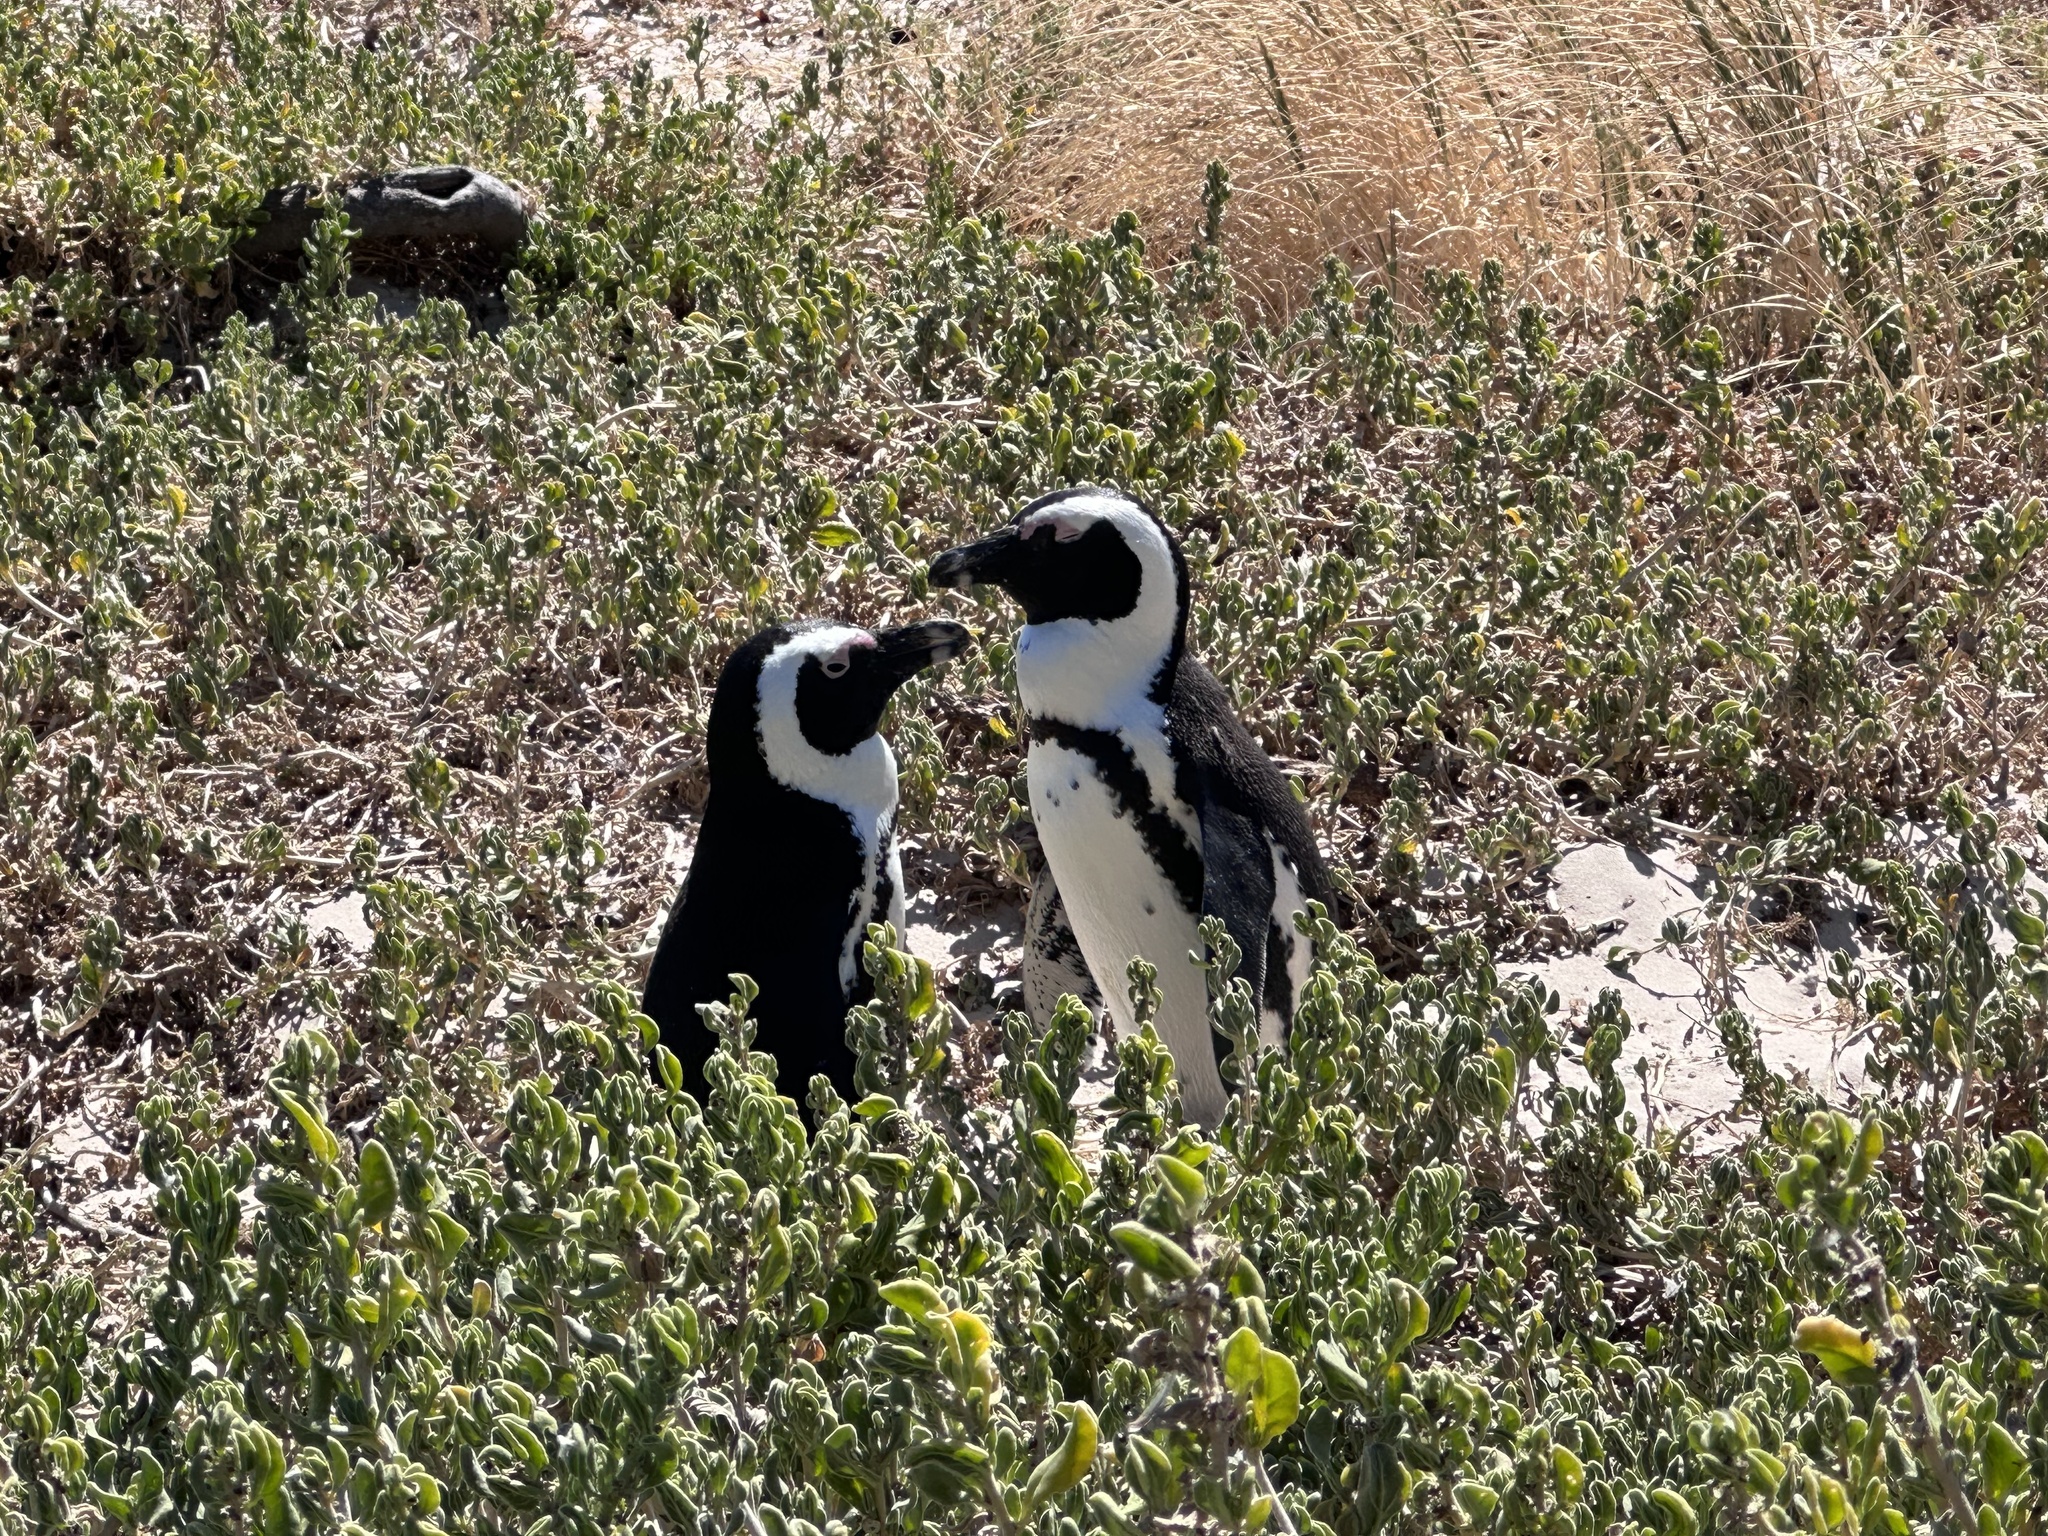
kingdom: Animalia
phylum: Chordata
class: Aves
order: Sphenisciformes
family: Spheniscidae
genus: Spheniscus
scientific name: Spheniscus demersus
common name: African penguin
